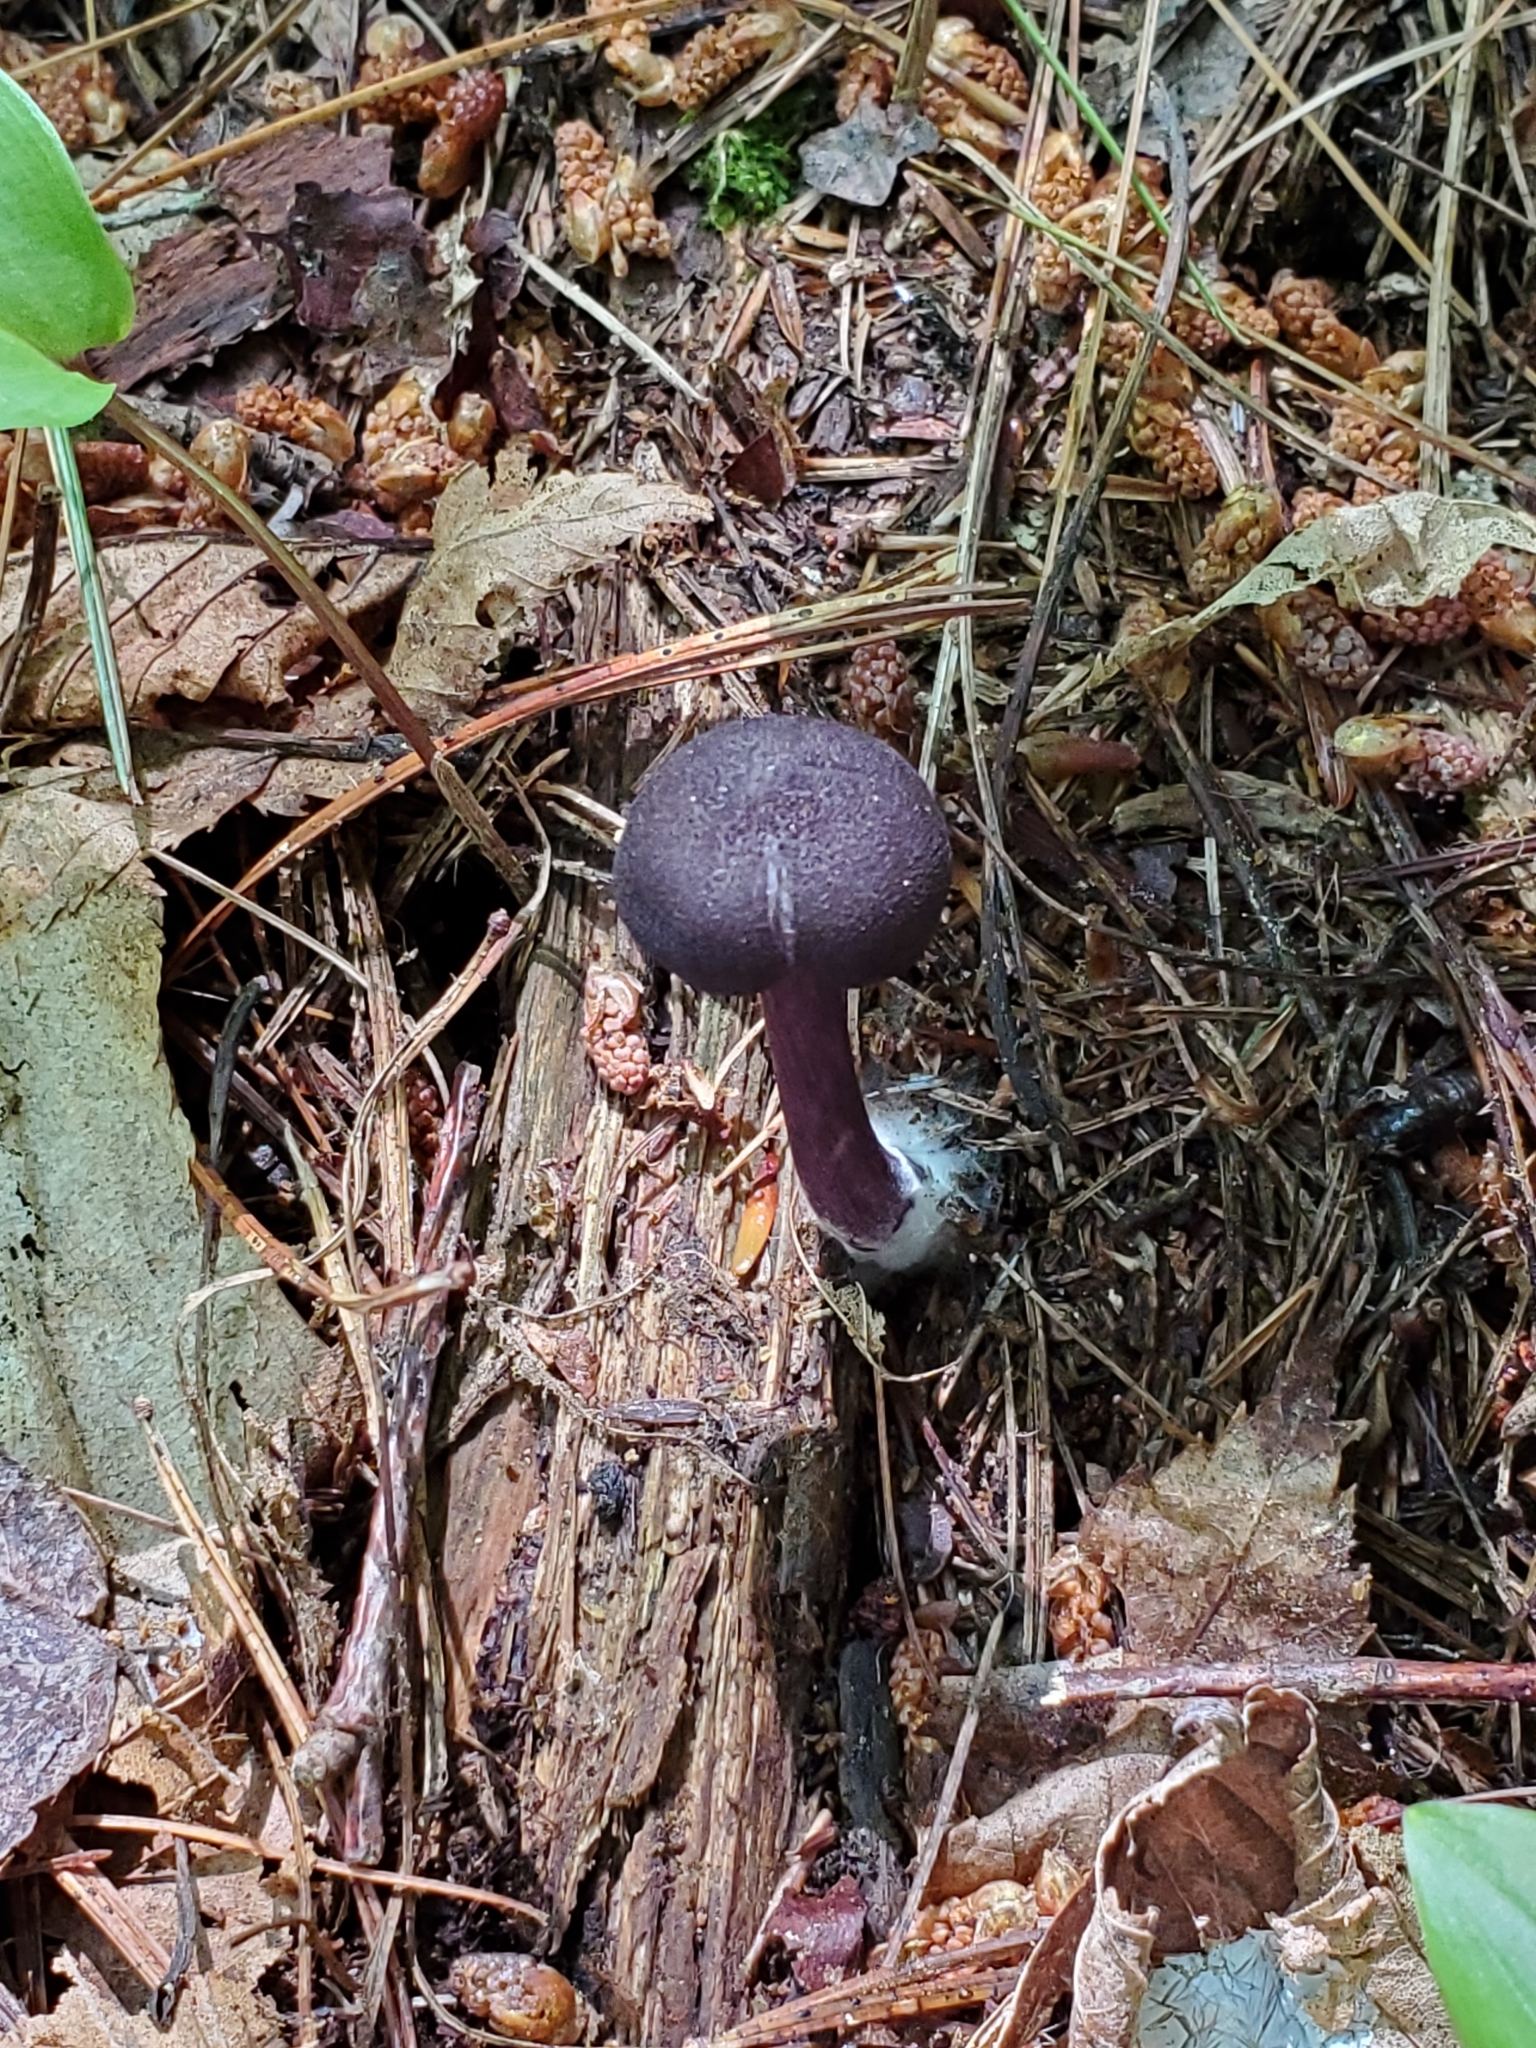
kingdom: Fungi
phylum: Basidiomycota
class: Agaricomycetes
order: Agaricales
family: Entolomataceae
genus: Entoloma
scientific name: Entoloma cyaneum
